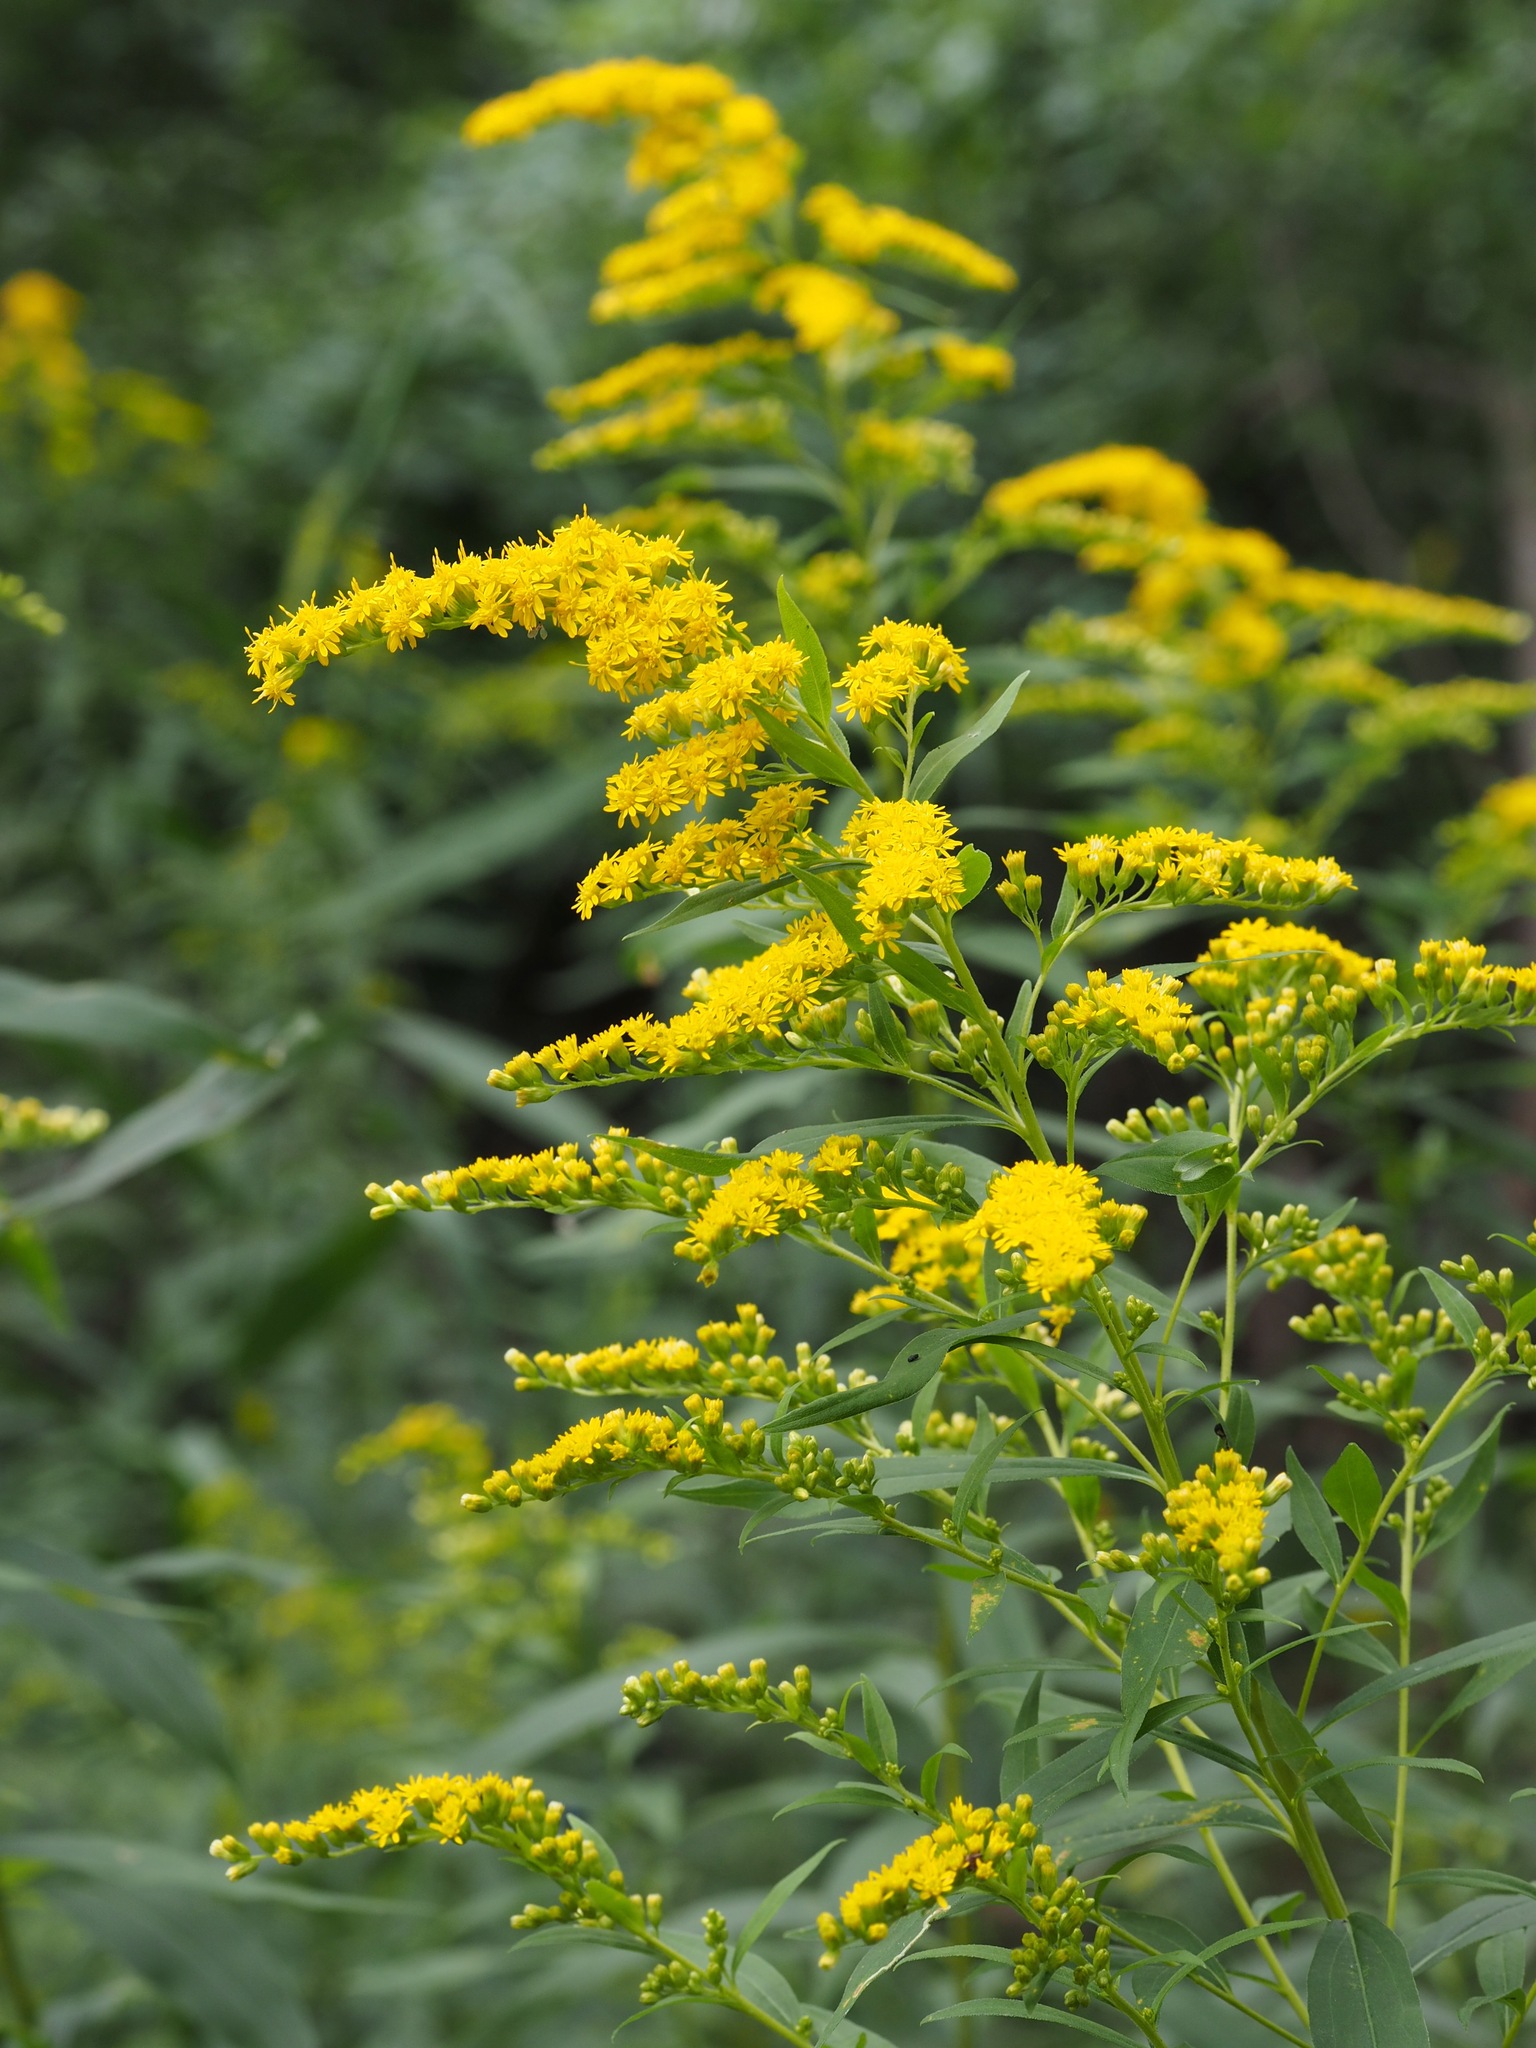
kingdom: Plantae
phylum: Tracheophyta
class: Magnoliopsida
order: Asterales
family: Asteraceae
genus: Solidago
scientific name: Solidago gigantea
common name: Giant goldenrod
